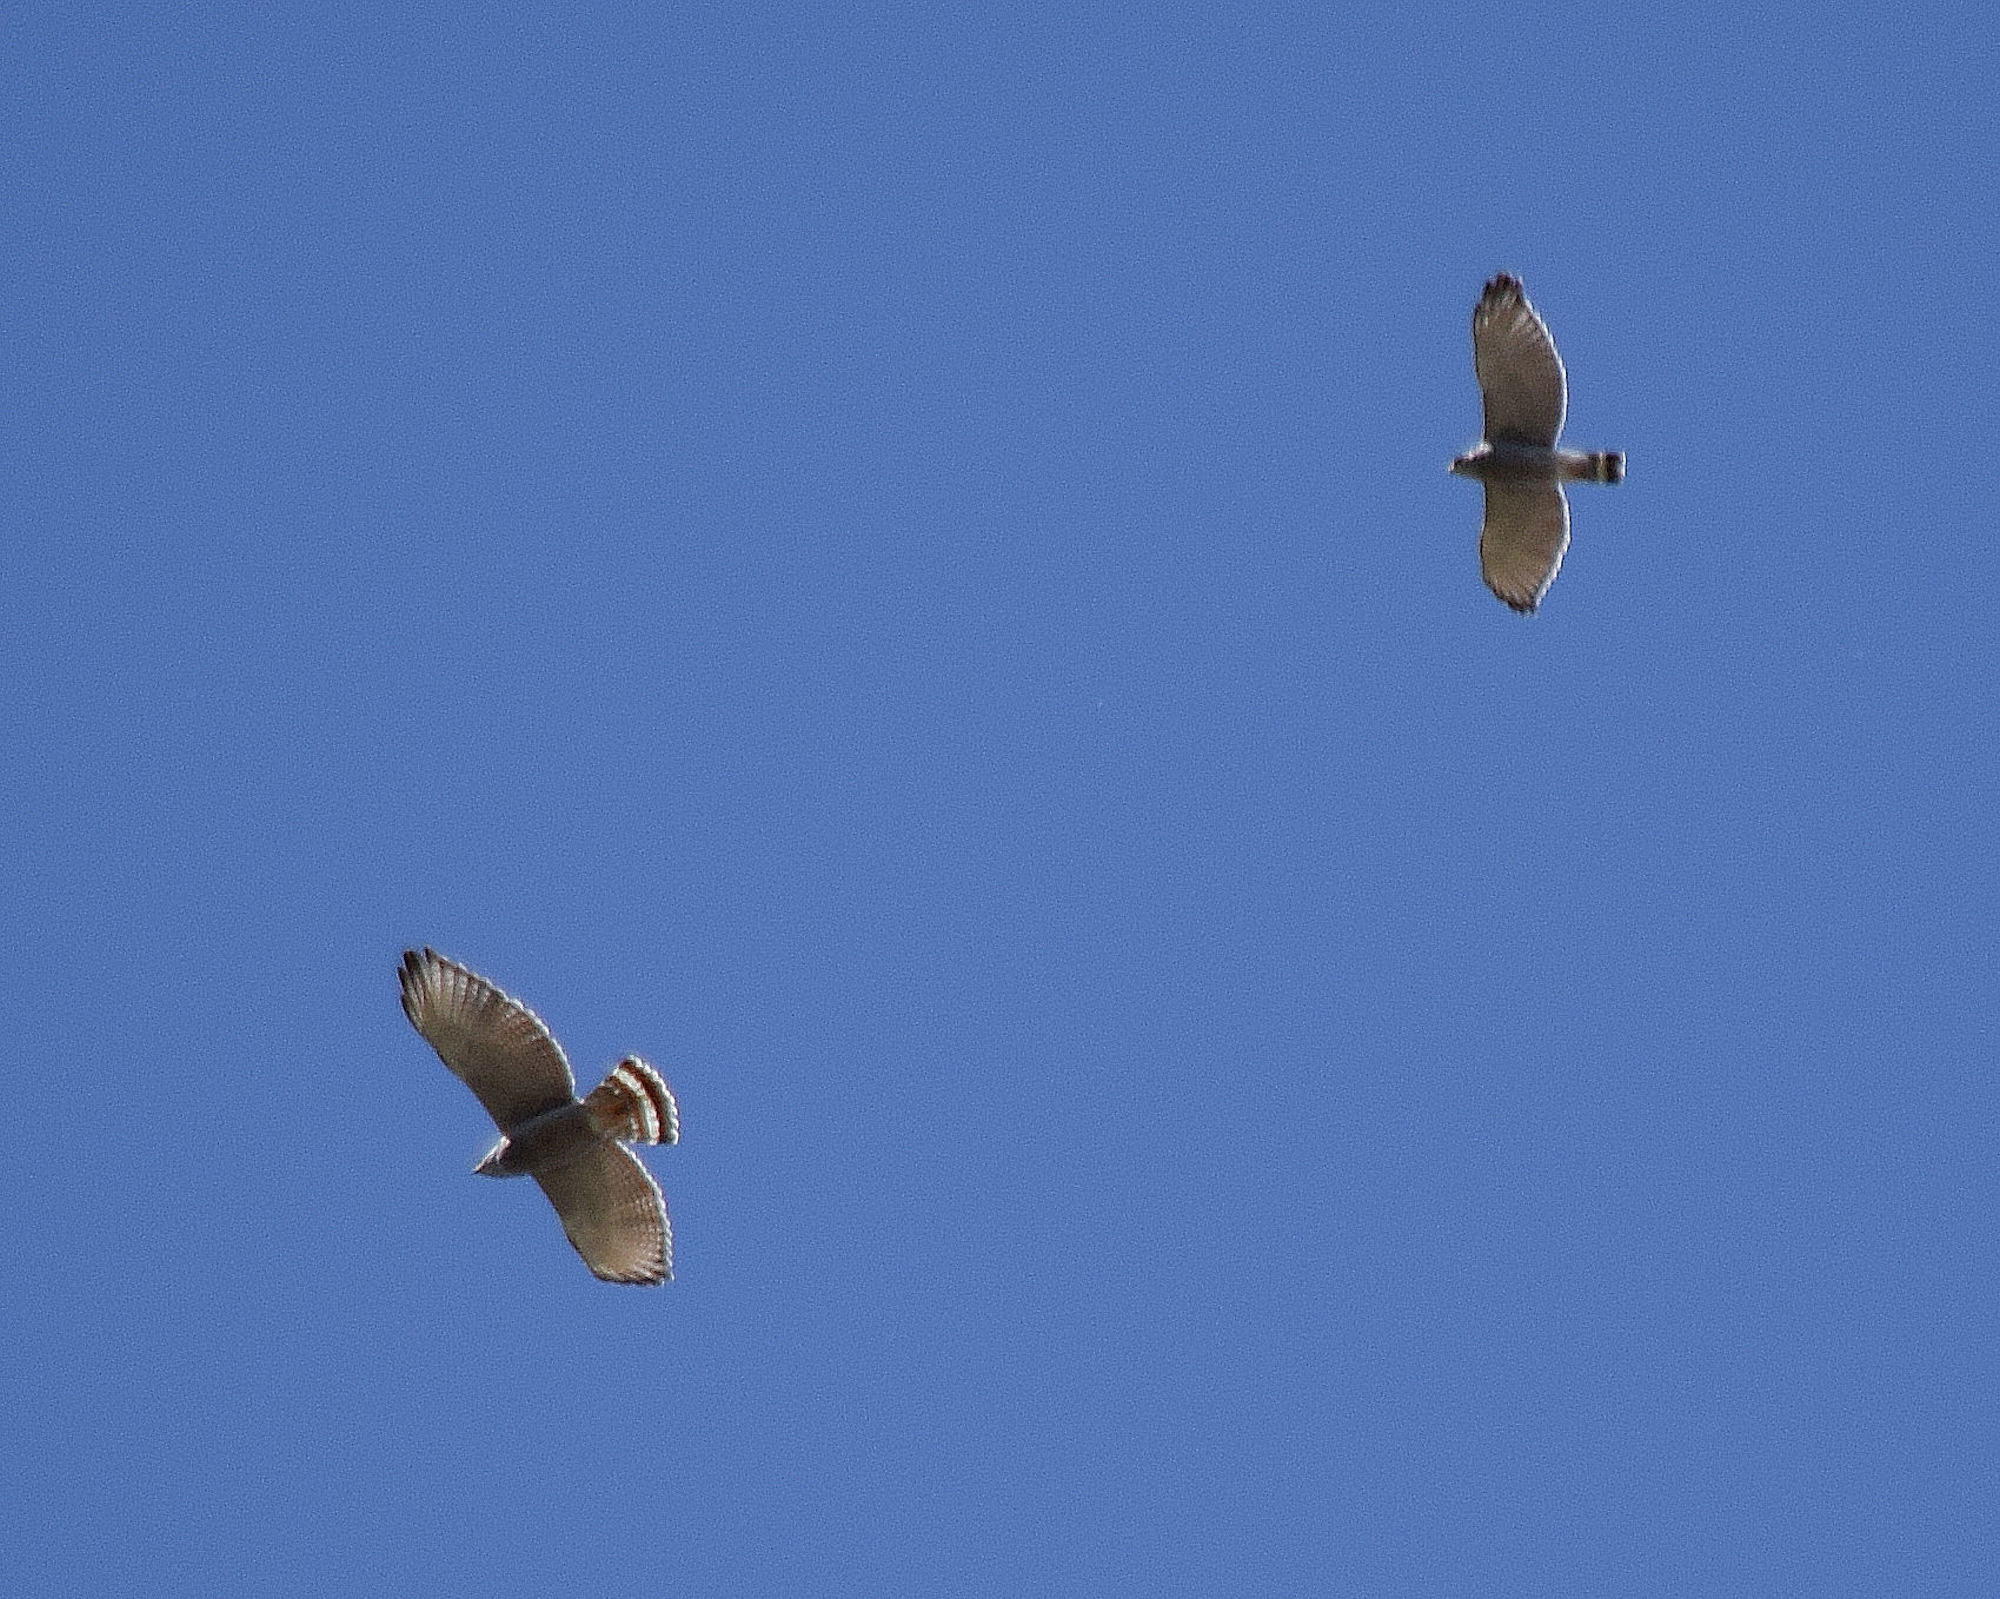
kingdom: Animalia
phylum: Chordata
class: Aves
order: Accipitriformes
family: Accipitridae
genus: Buteo
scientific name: Buteo nitidus
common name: Grey-lined hawk
